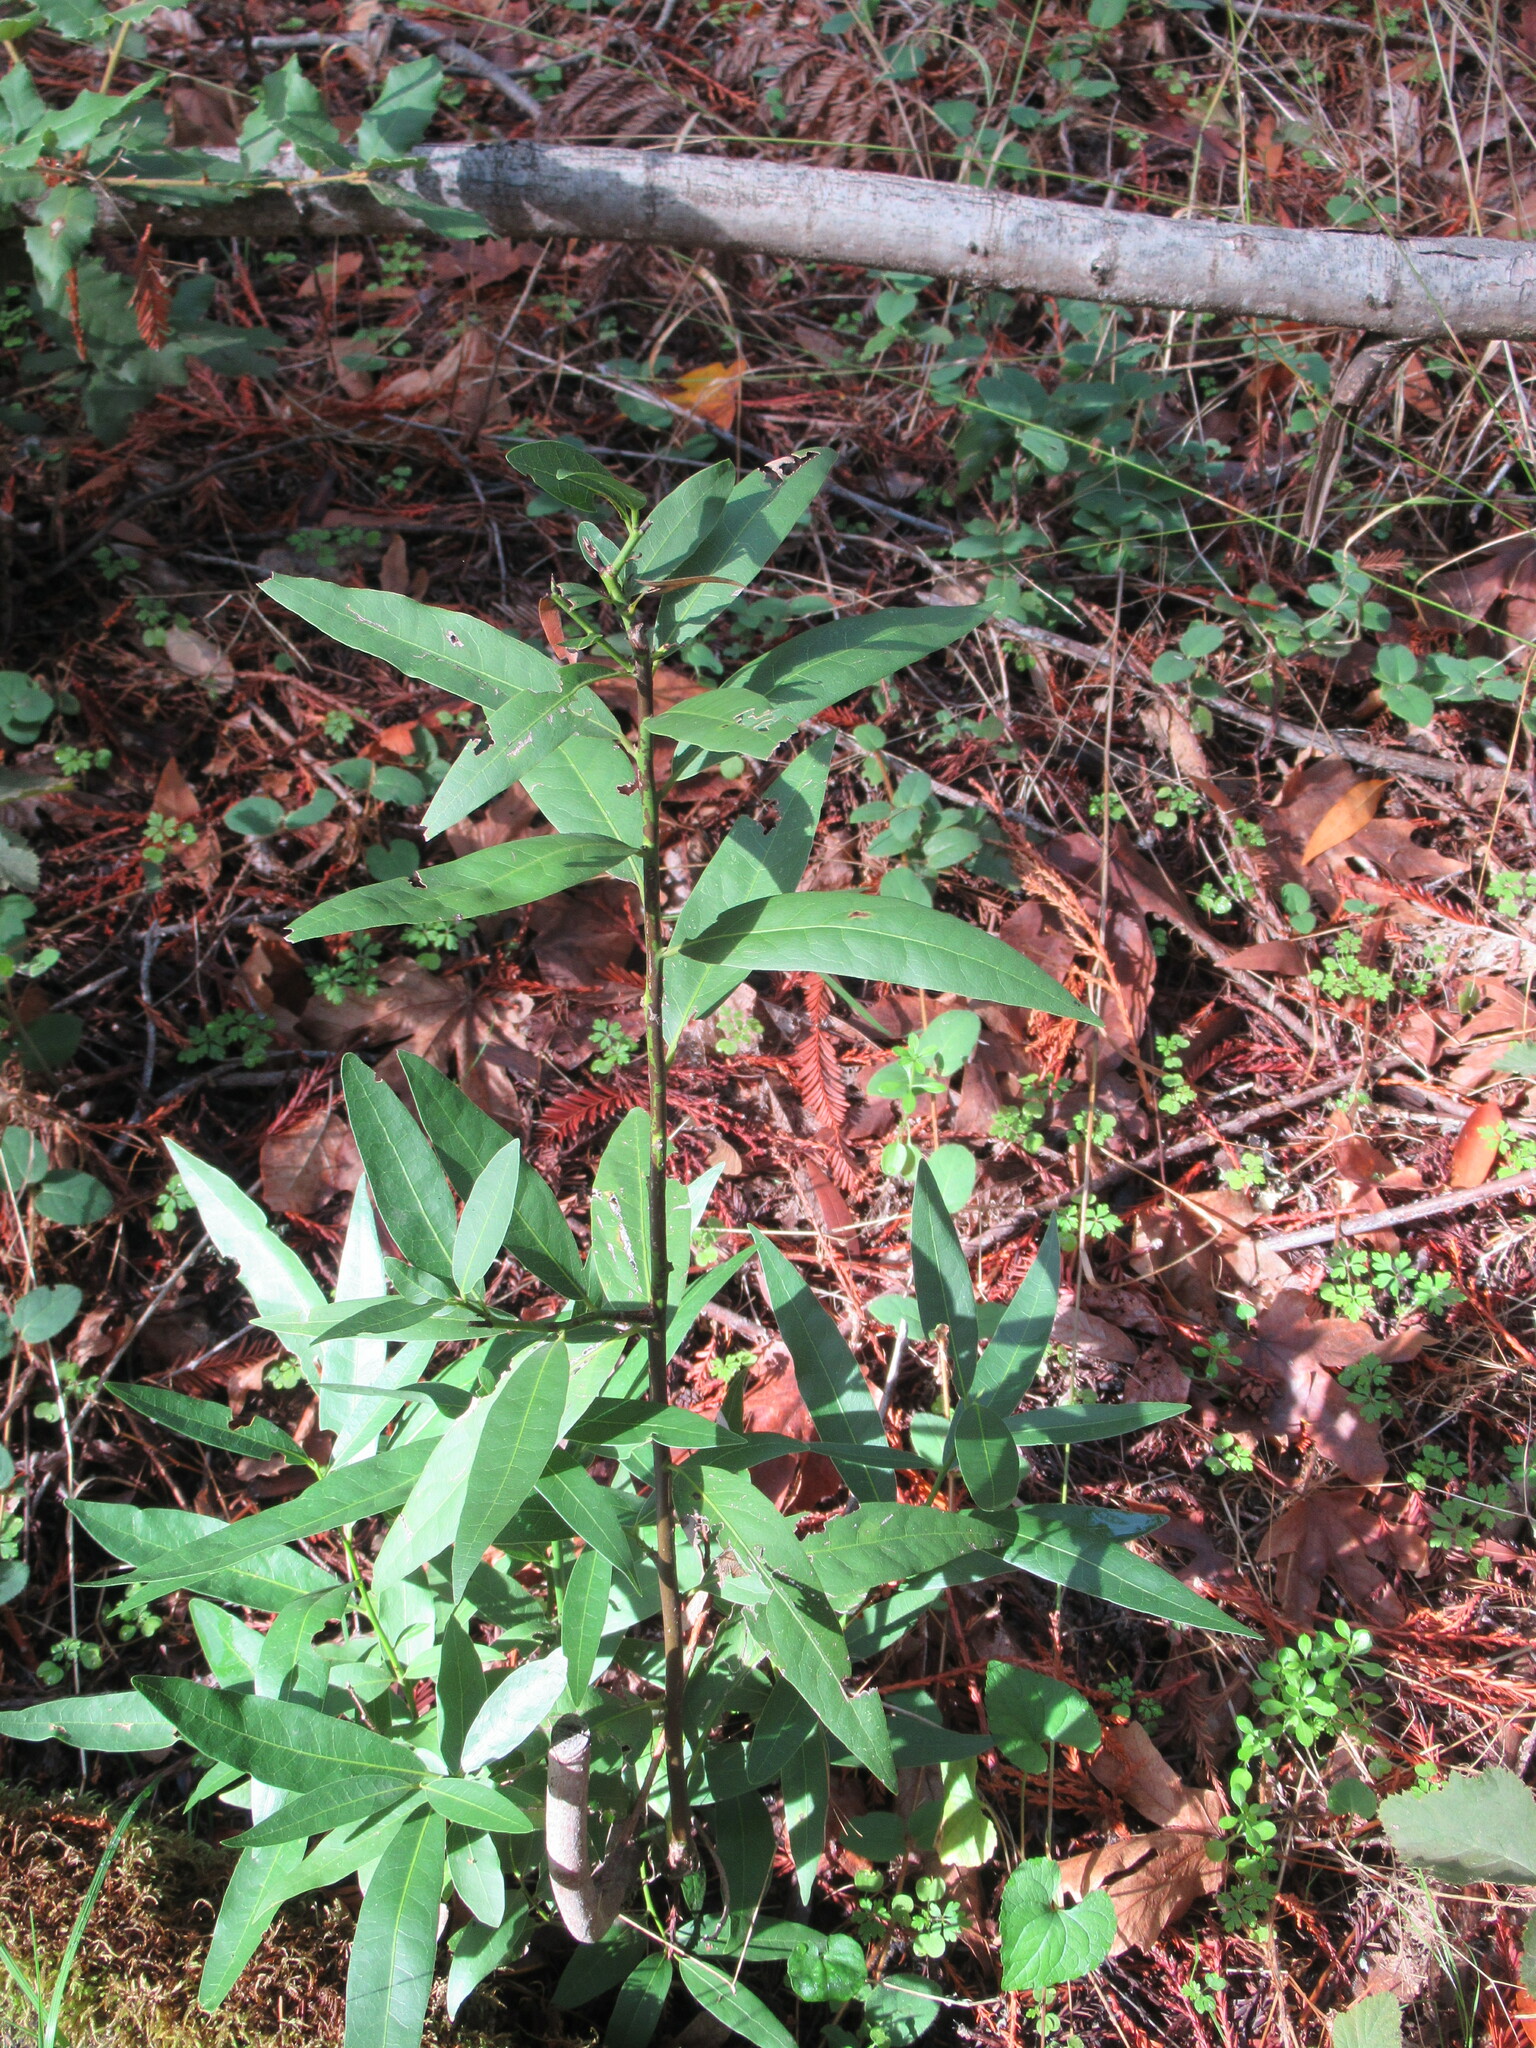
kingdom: Plantae
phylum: Tracheophyta
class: Magnoliopsida
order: Laurales
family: Lauraceae
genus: Umbellularia
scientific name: Umbellularia californica
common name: California bay
